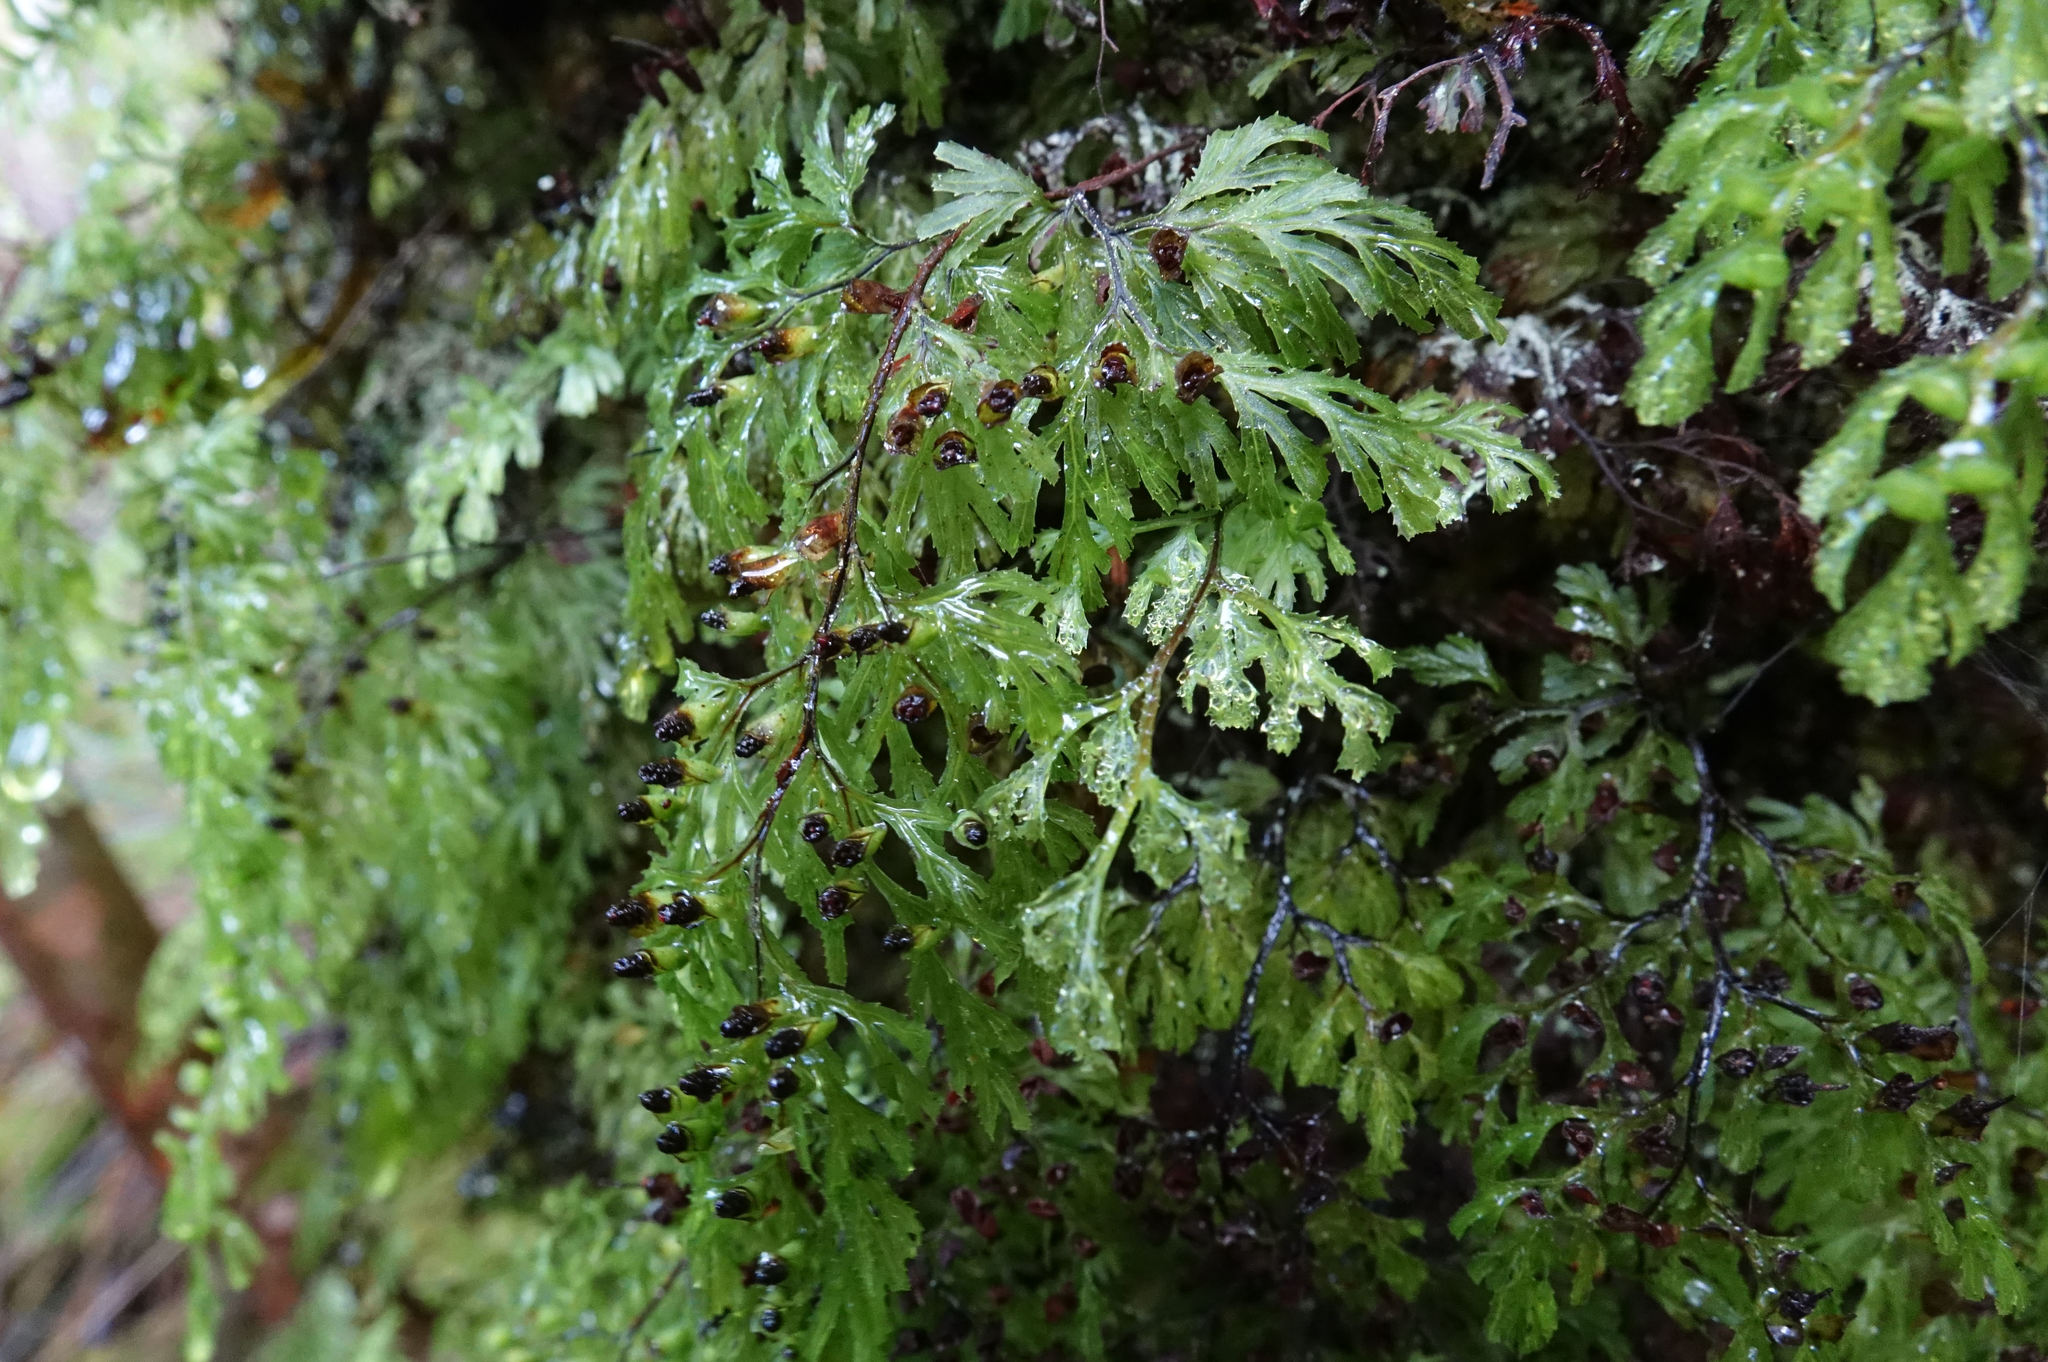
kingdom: Plantae
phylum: Tracheophyta
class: Polypodiopsida
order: Hymenophyllales
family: Hymenophyllaceae
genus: Hymenophyllum
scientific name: Hymenophyllum multifidum
